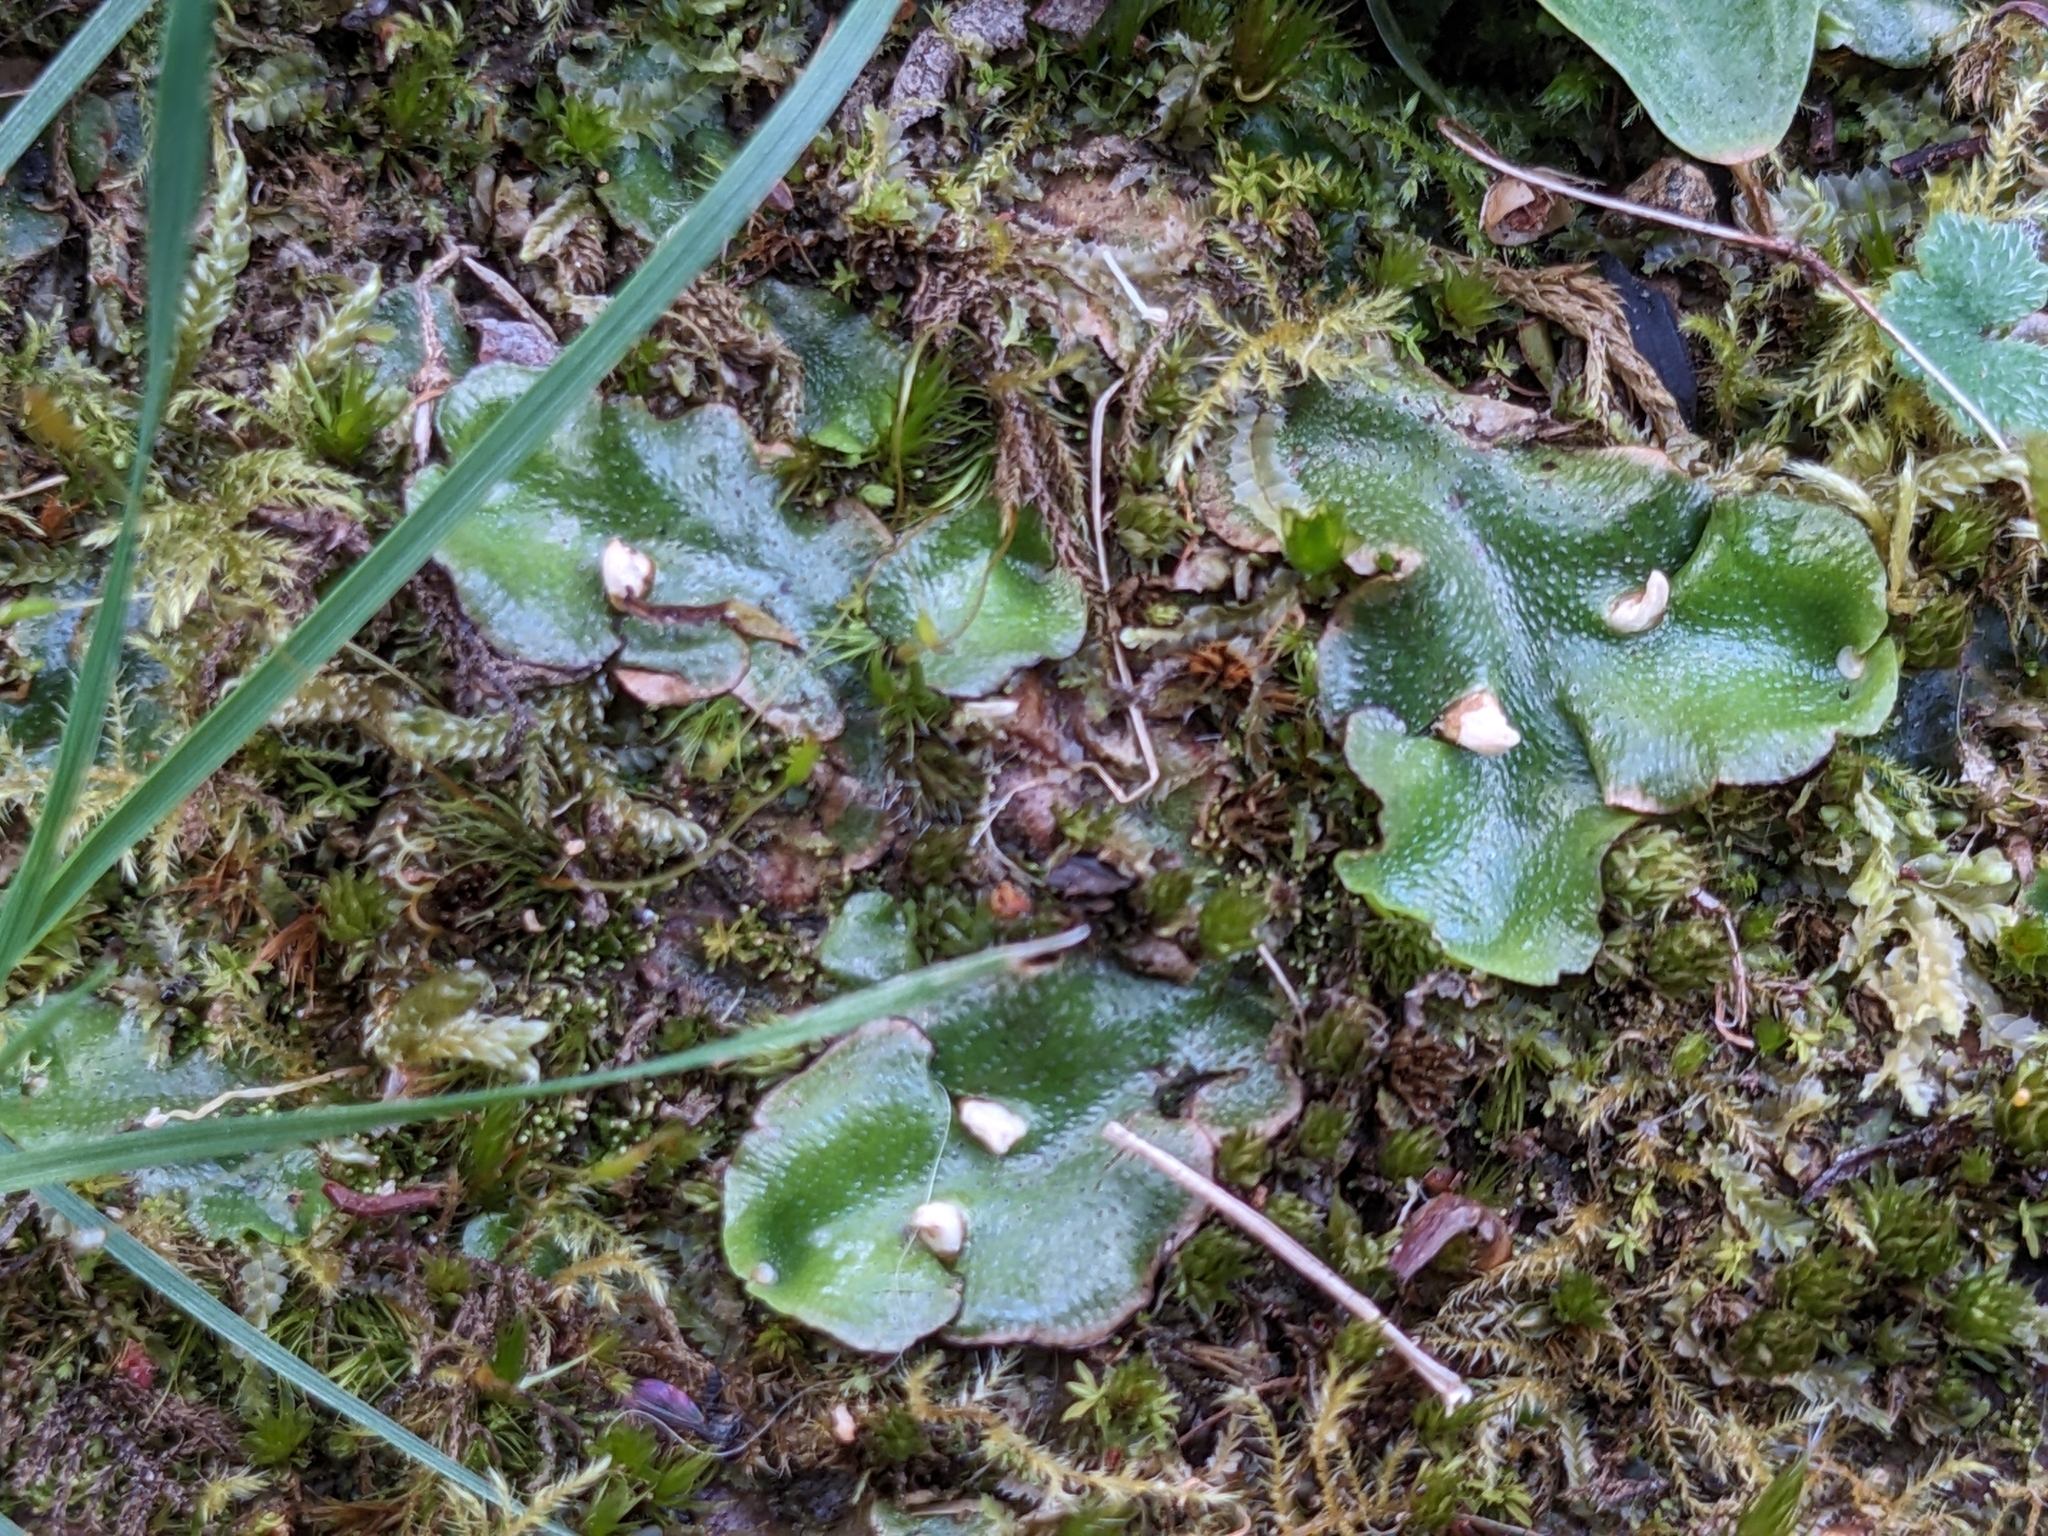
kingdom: Plantae
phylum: Marchantiophyta
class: Marchantiopsida
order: Lunulariales
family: Lunulariaceae
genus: Lunularia
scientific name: Lunularia cruciata
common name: Crescent-cup liverwort
